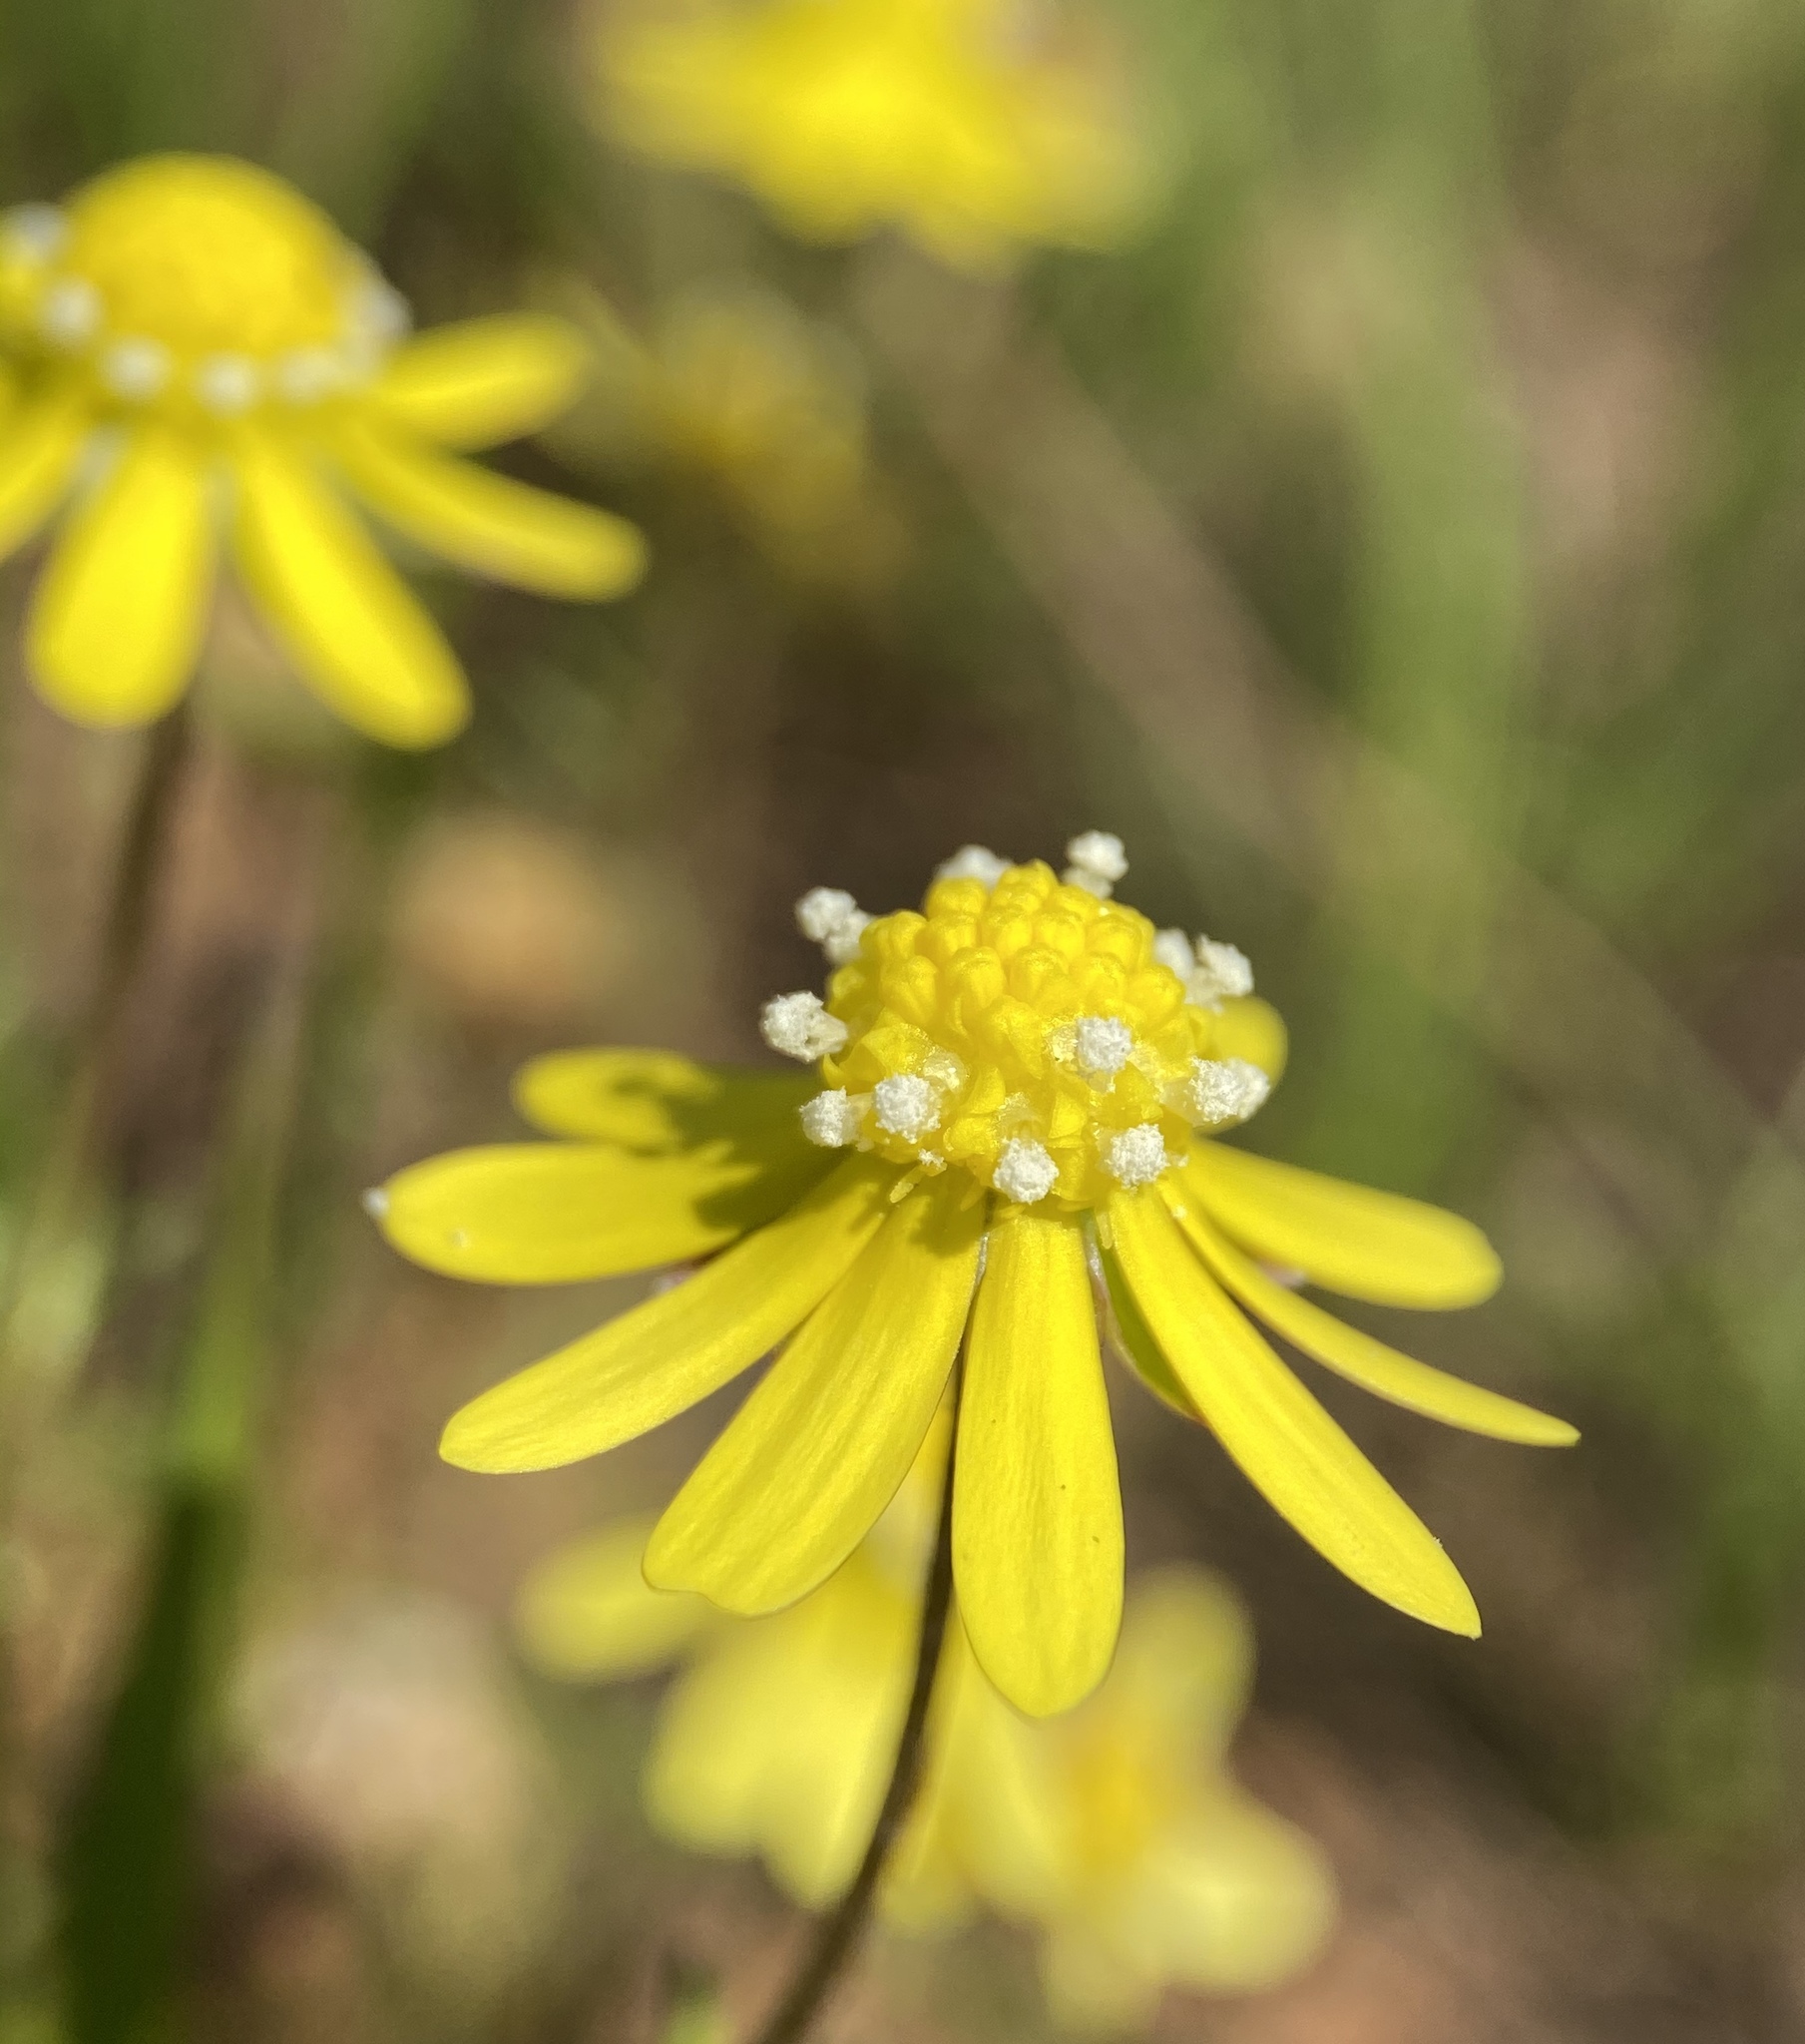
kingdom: Plantae
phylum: Tracheophyta
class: Magnoliopsida
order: Asterales
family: Asteraceae
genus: Blennosperma
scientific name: Blennosperma nanum
